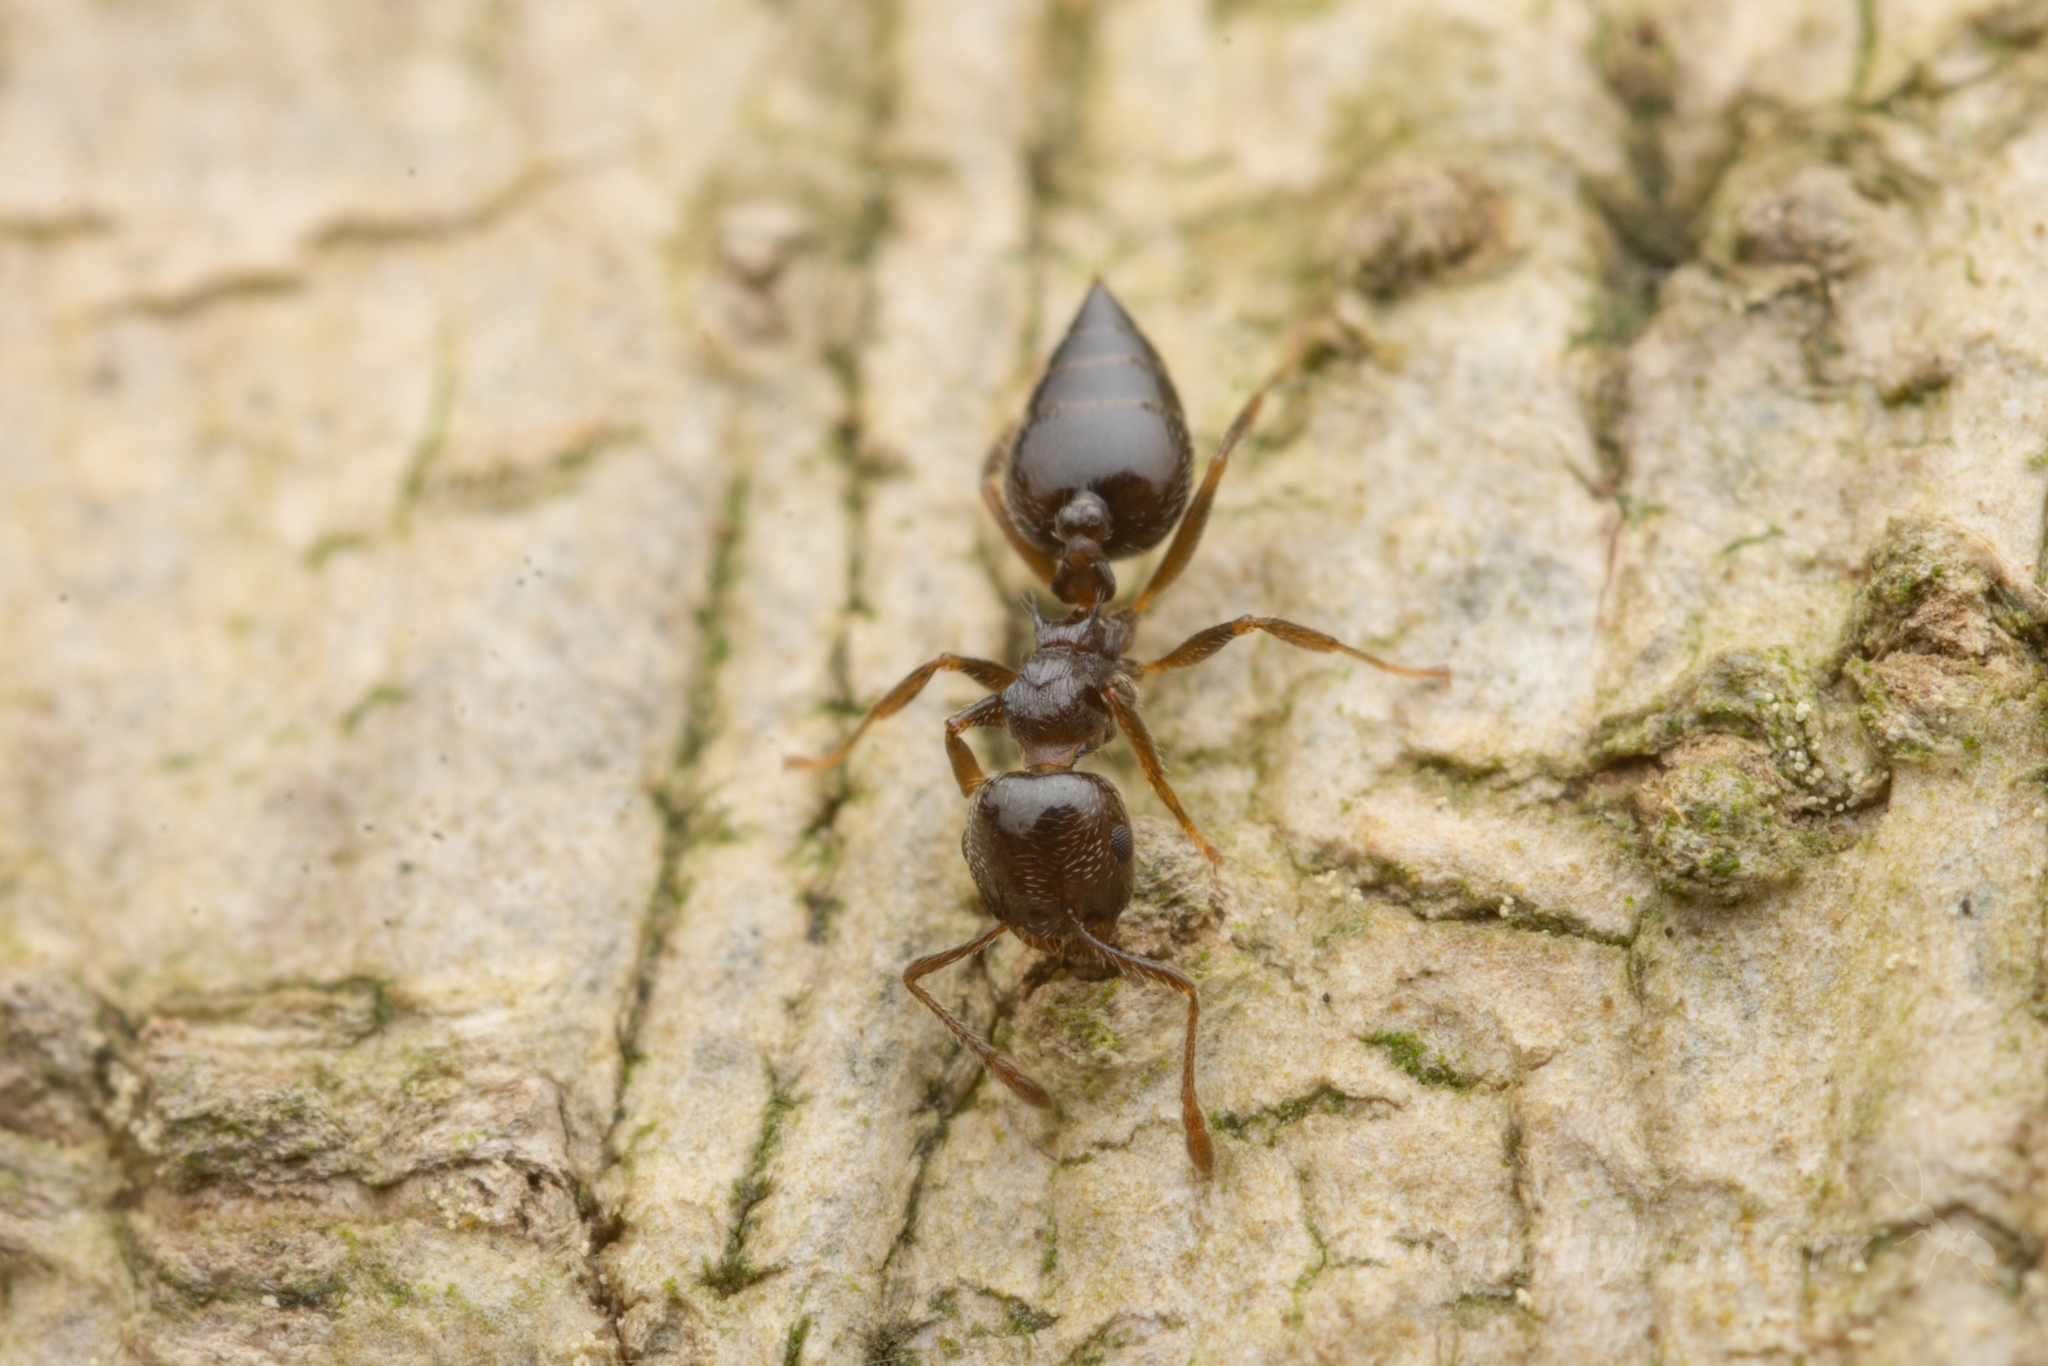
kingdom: Animalia
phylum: Arthropoda
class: Insecta
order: Hymenoptera
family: Formicidae
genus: Crematogaster
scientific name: Crematogaster teranishii
